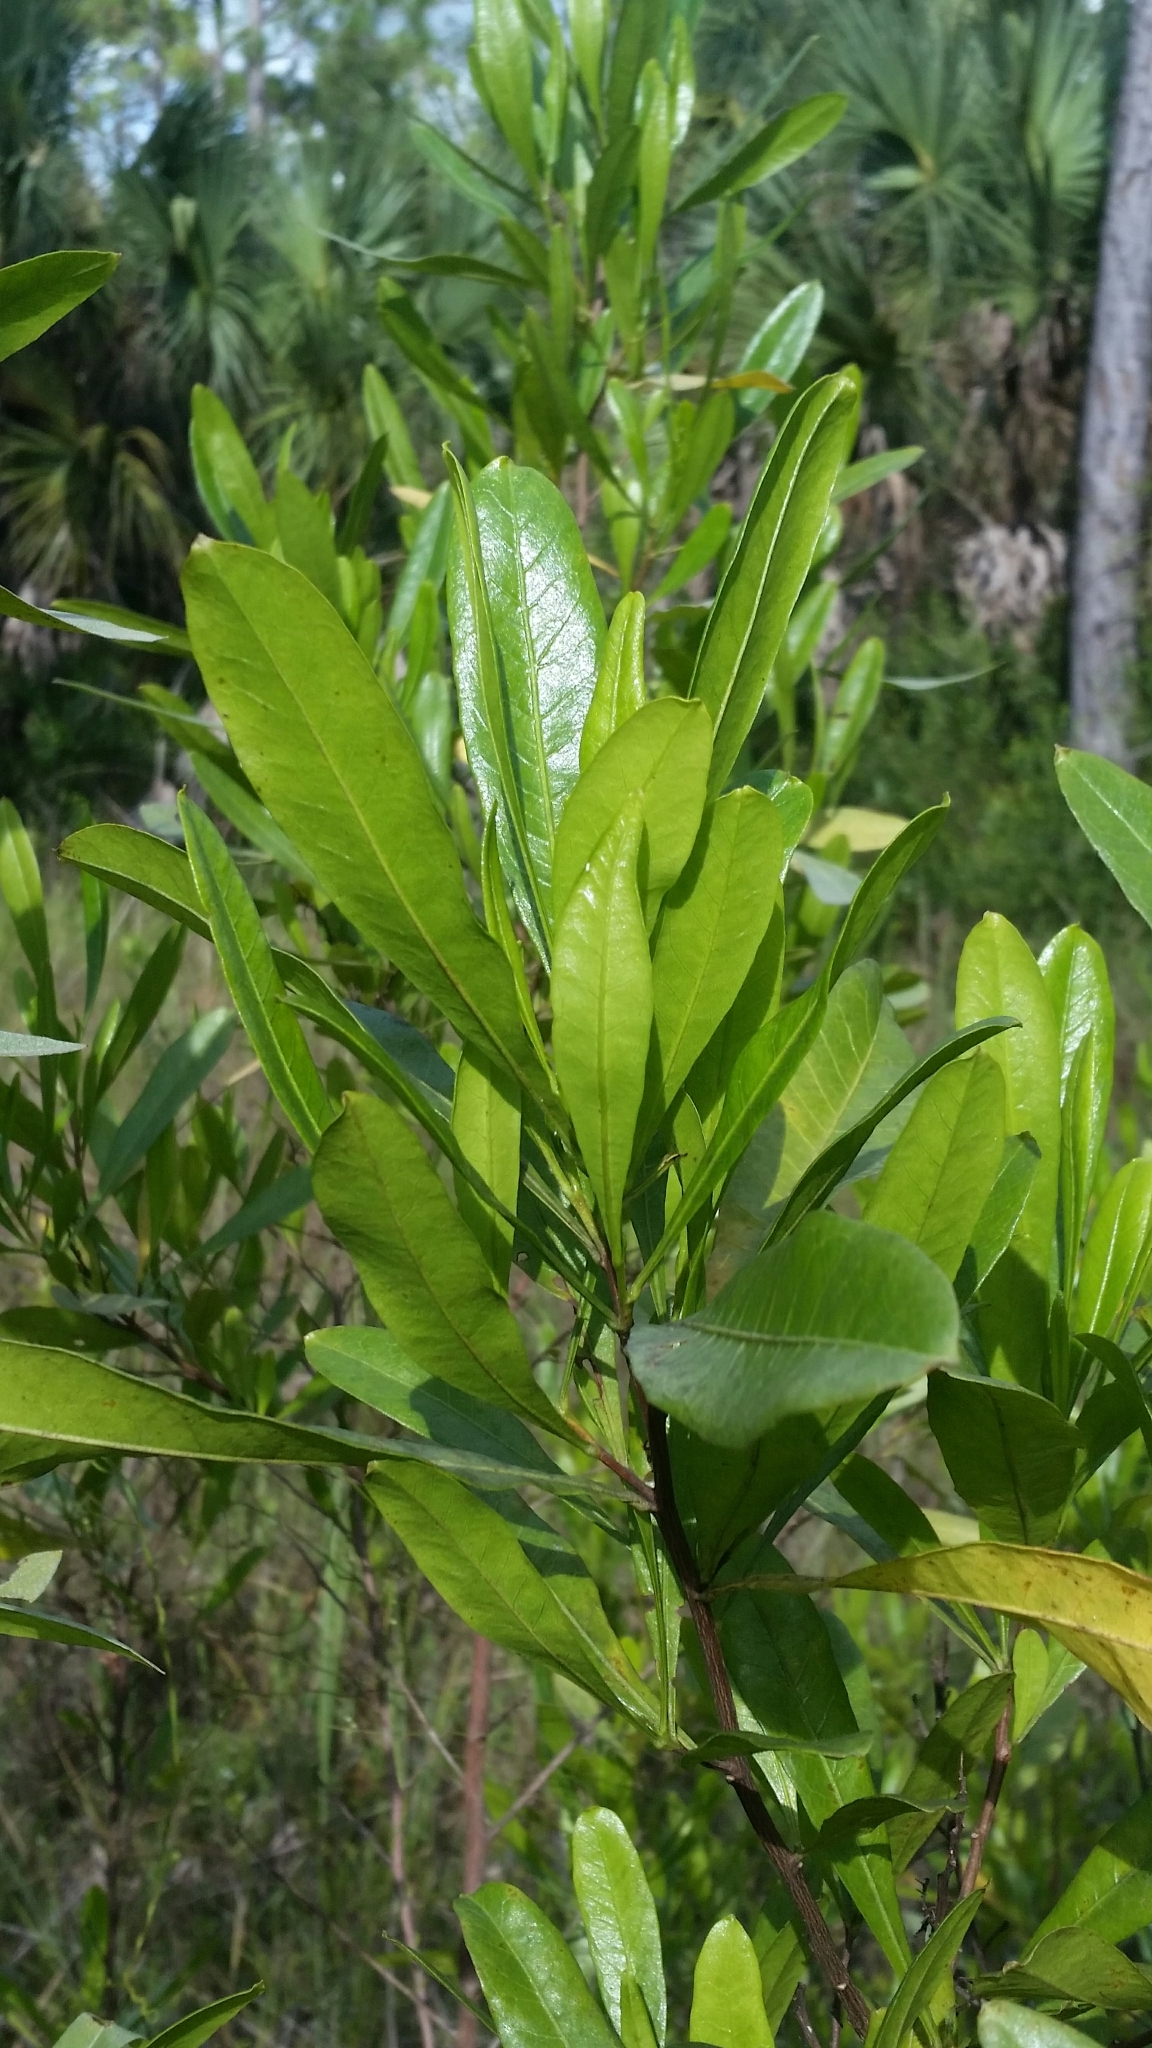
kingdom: Plantae
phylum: Tracheophyta
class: Magnoliopsida
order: Sapindales
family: Sapindaceae
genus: Dodonaea
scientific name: Dodonaea viscosa
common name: Hopbush
